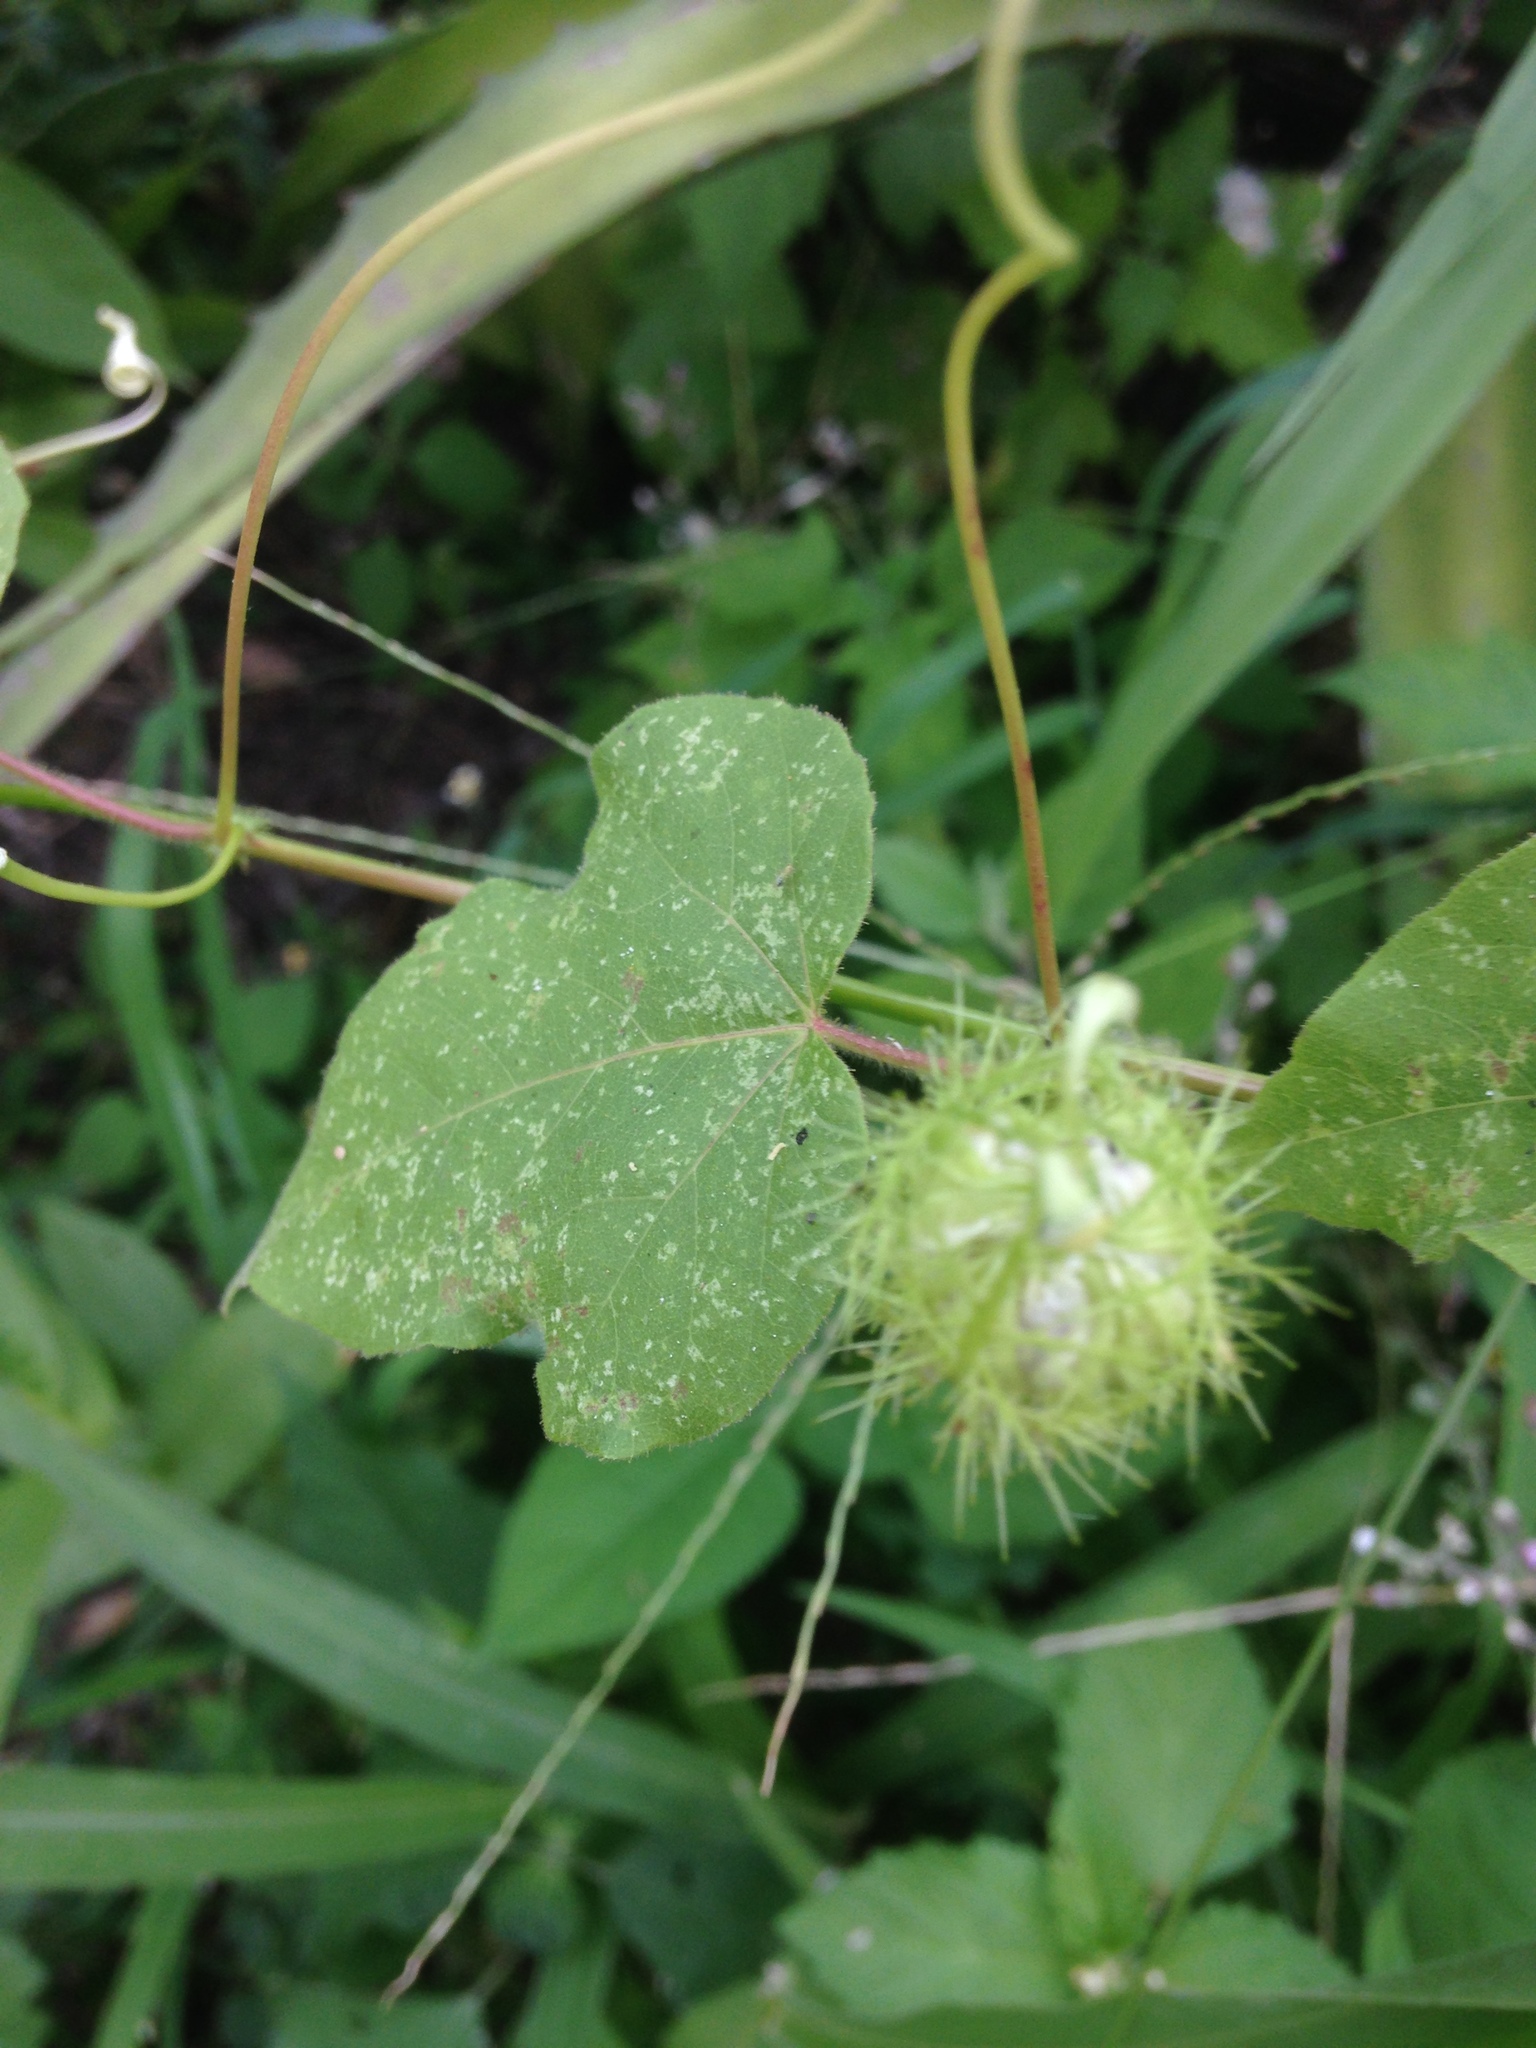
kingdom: Plantae
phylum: Tracheophyta
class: Magnoliopsida
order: Malpighiales
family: Passifloraceae
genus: Passiflora
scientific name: Passiflora foetida
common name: Fetid passionflower
